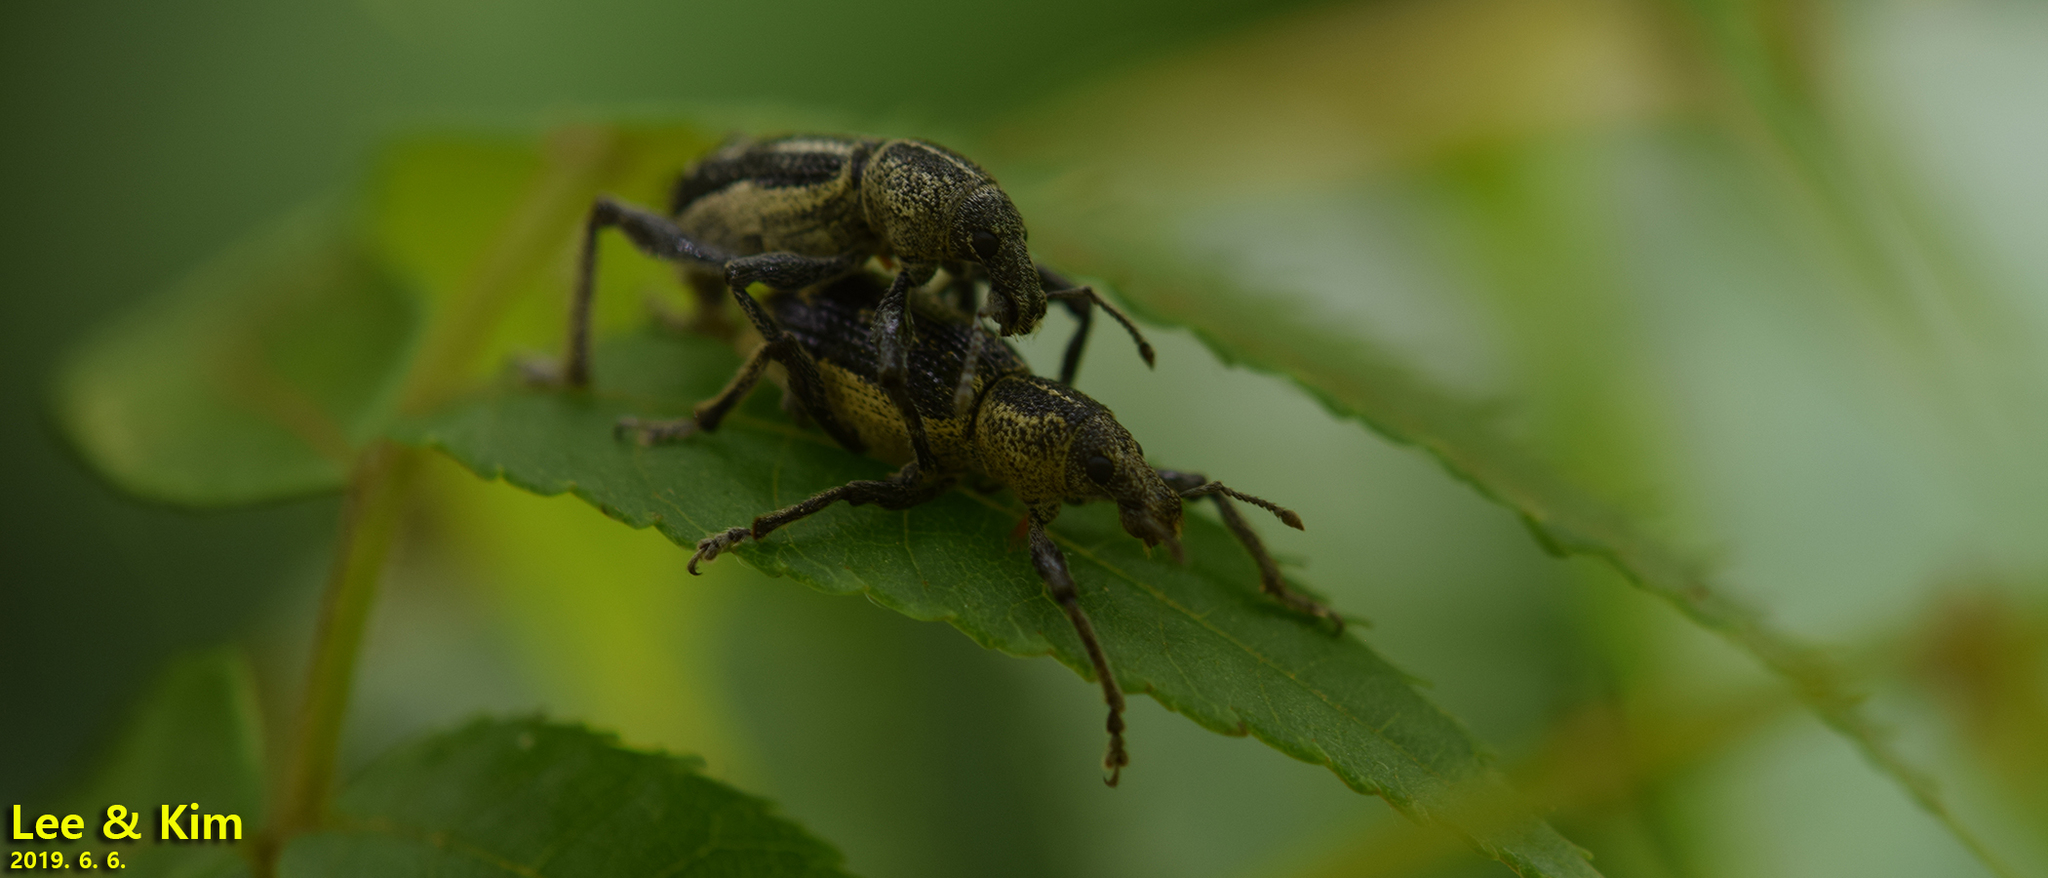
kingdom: Animalia
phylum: Arthropoda
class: Insecta
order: Coleoptera
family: Curculionidae
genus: Enaptorhinus
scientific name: Enaptorhinus granulatus
